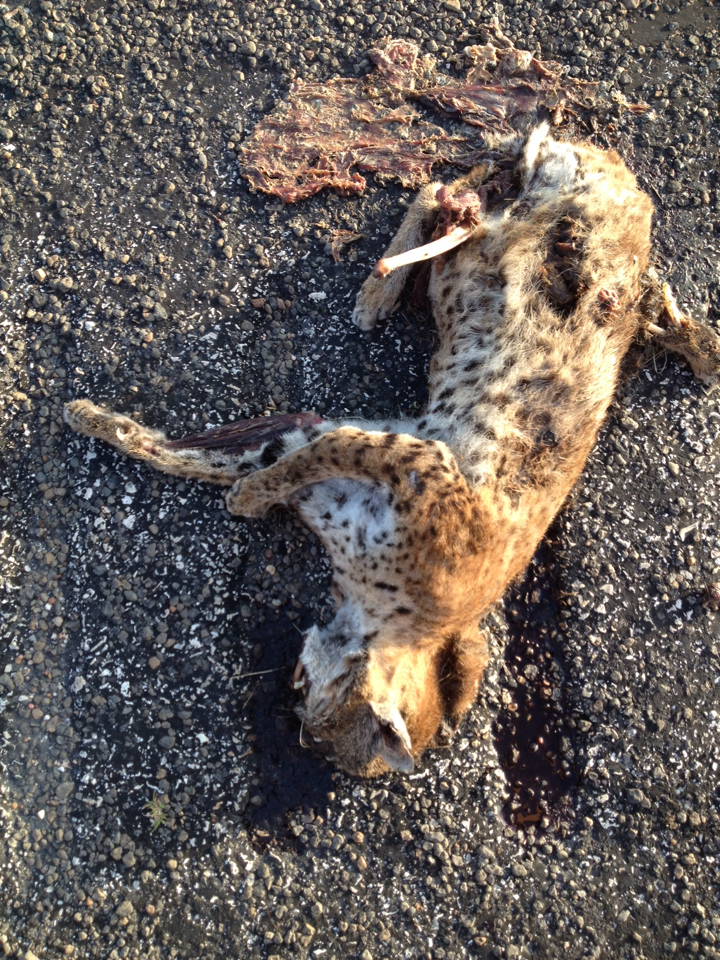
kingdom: Animalia
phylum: Chordata
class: Mammalia
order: Carnivora
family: Felidae
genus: Lynx
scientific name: Lynx rufus
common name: Bobcat
